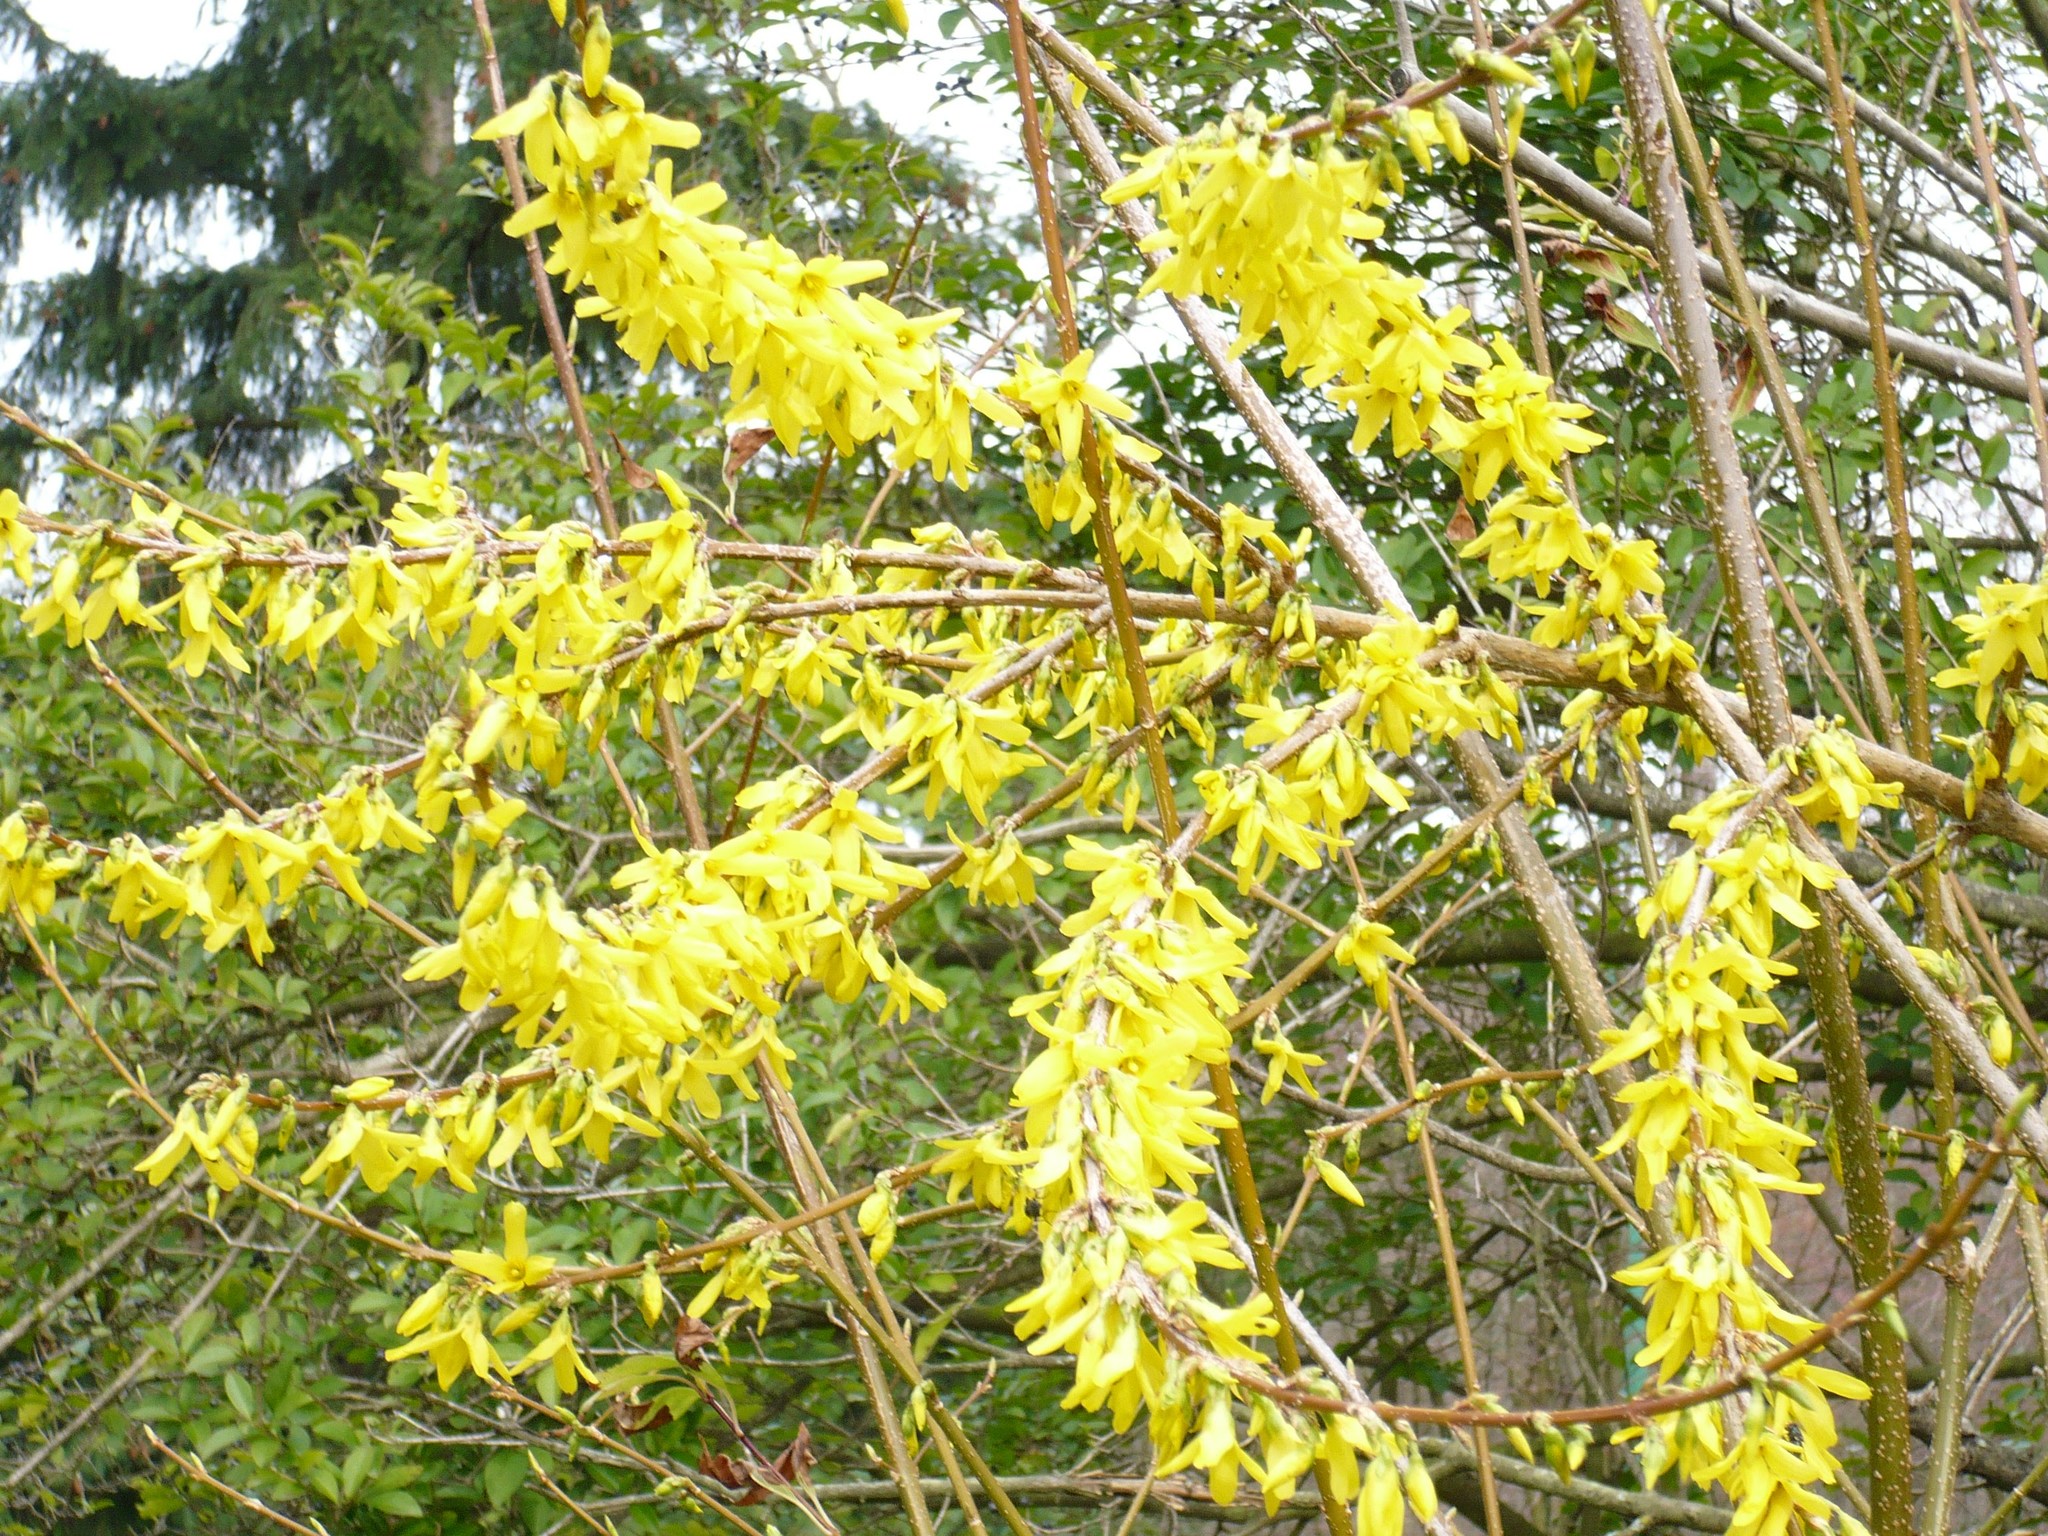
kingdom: Plantae
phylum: Tracheophyta
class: Magnoliopsida
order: Lamiales
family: Oleaceae
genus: Forsythia
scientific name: Forsythia intermedia
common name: Forsythia
